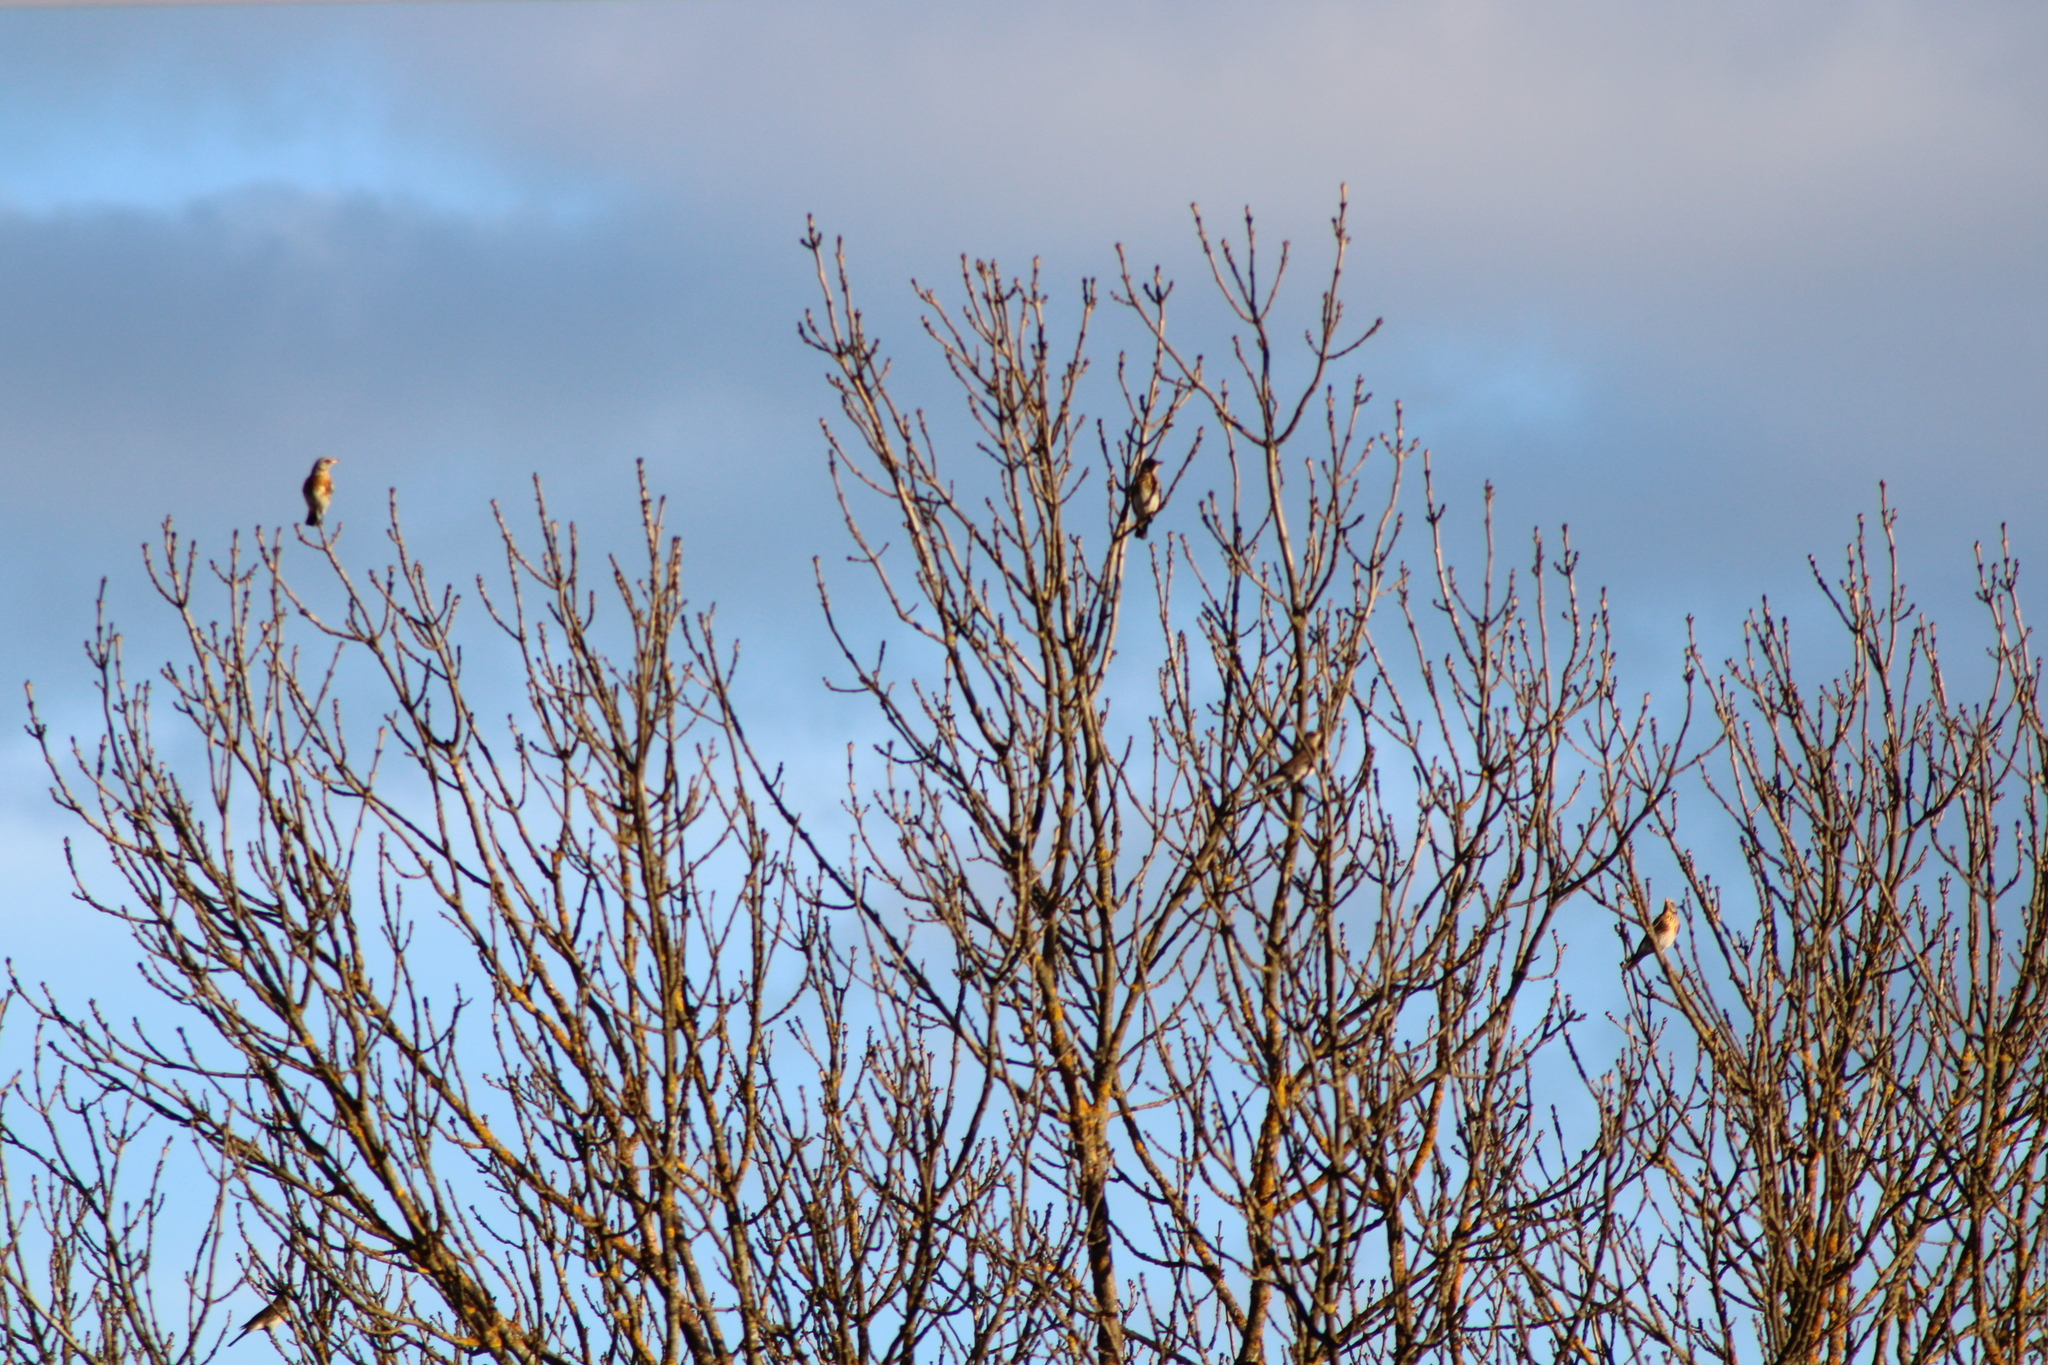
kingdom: Animalia
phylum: Chordata
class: Aves
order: Passeriformes
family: Turdidae
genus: Turdus
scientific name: Turdus pilaris
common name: Fieldfare
